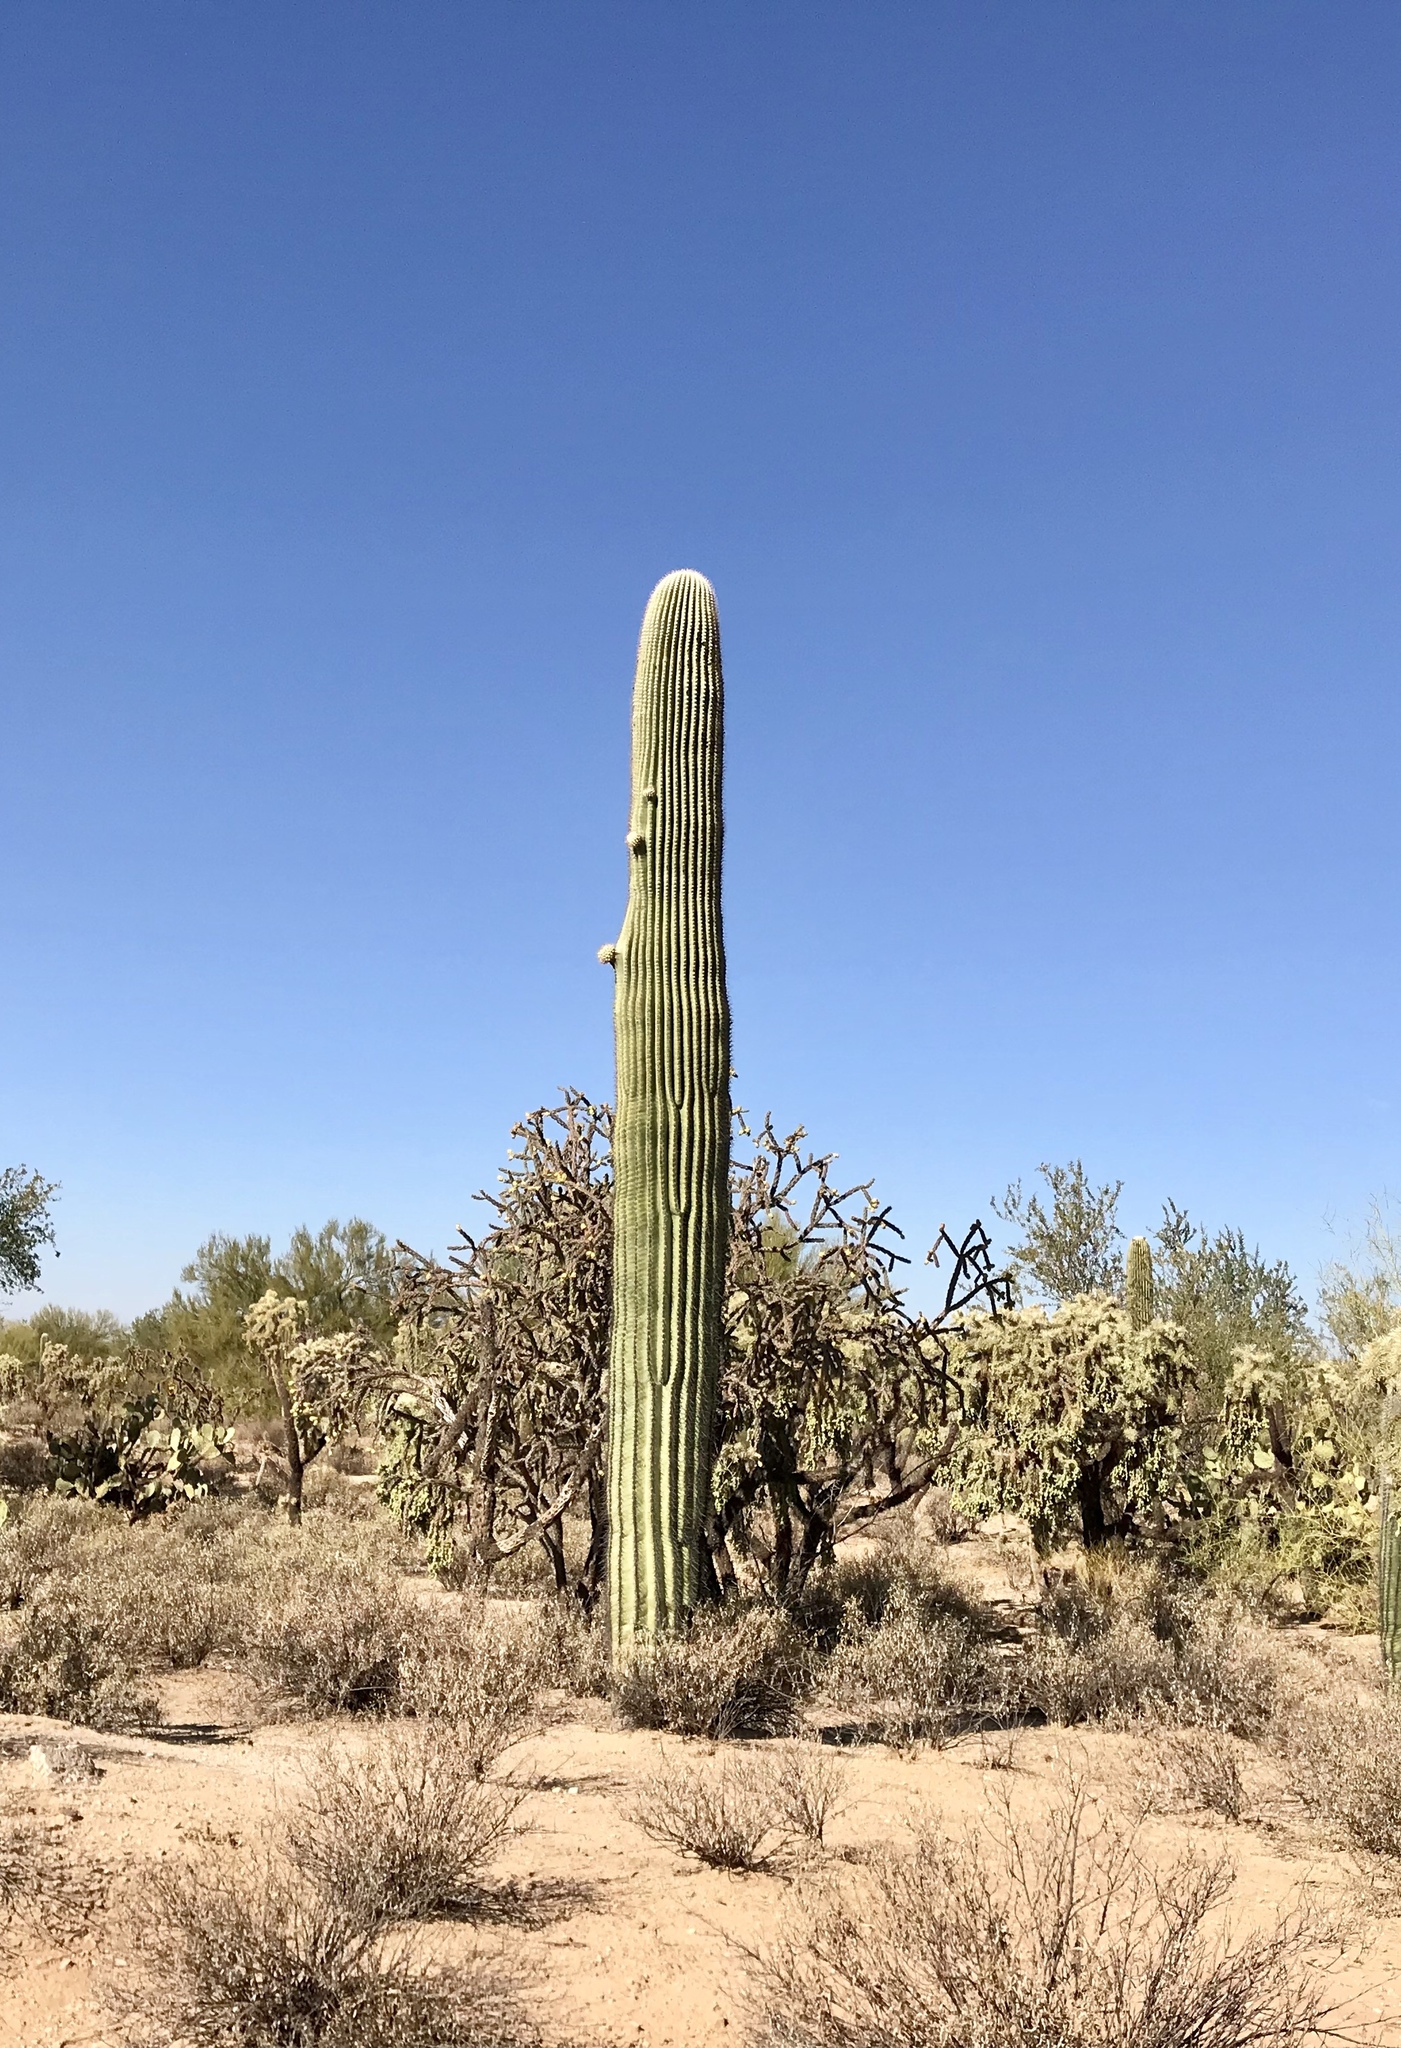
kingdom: Plantae
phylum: Tracheophyta
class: Magnoliopsida
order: Caryophyllales
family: Cactaceae
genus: Carnegiea
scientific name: Carnegiea gigantea
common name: Saguaro
